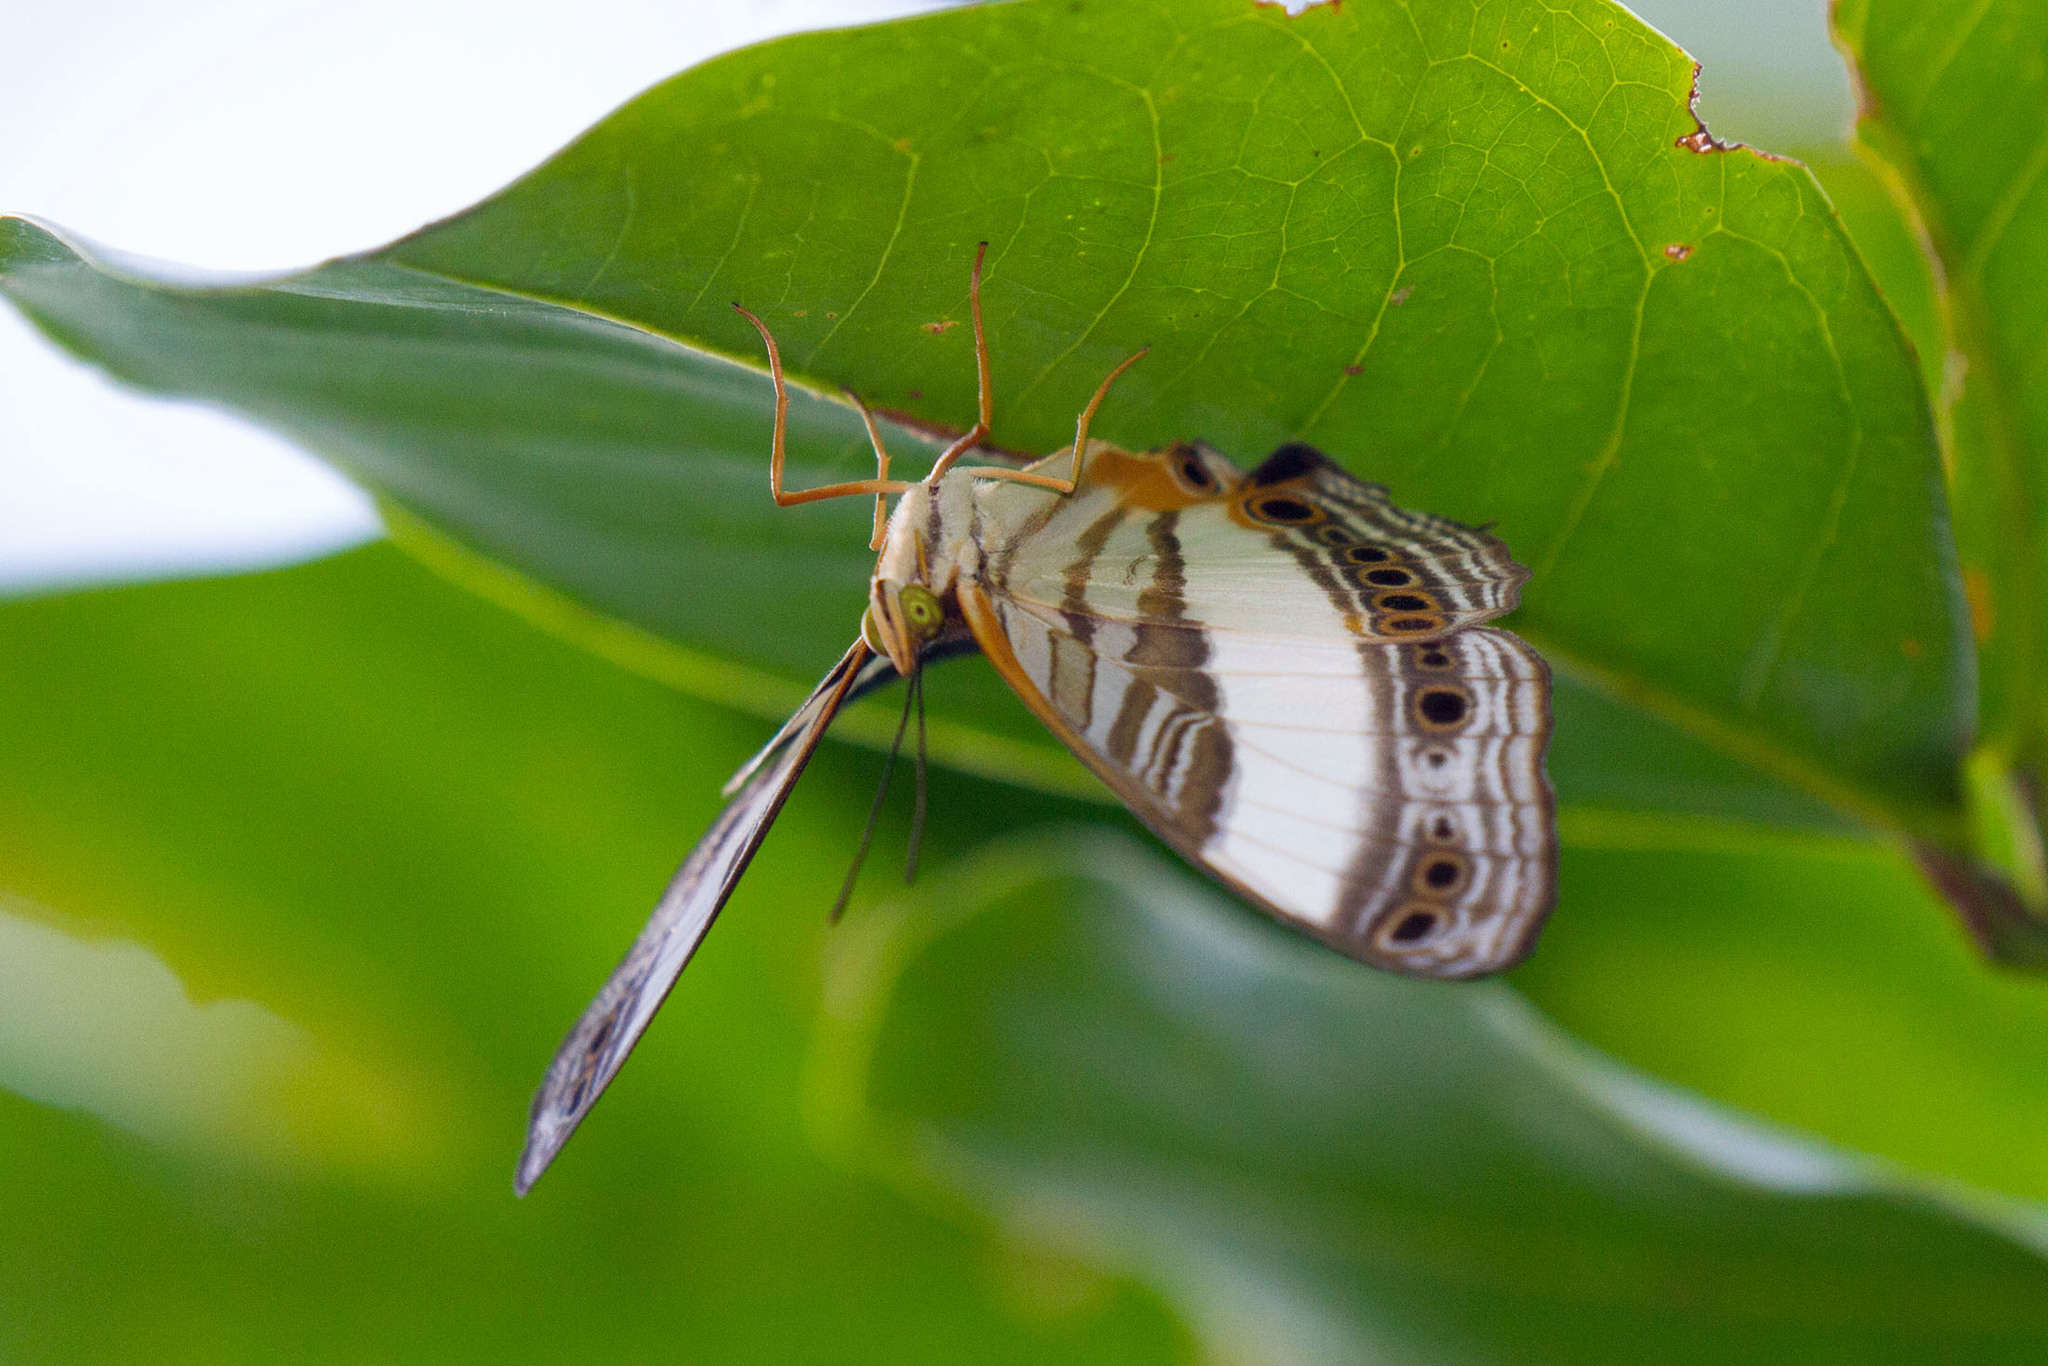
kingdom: Animalia
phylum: Arthropoda
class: Insecta
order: Lepidoptera
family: Nymphalidae
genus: Cyrestis
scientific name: Cyrestis acilia
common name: Godart's map butterfly
